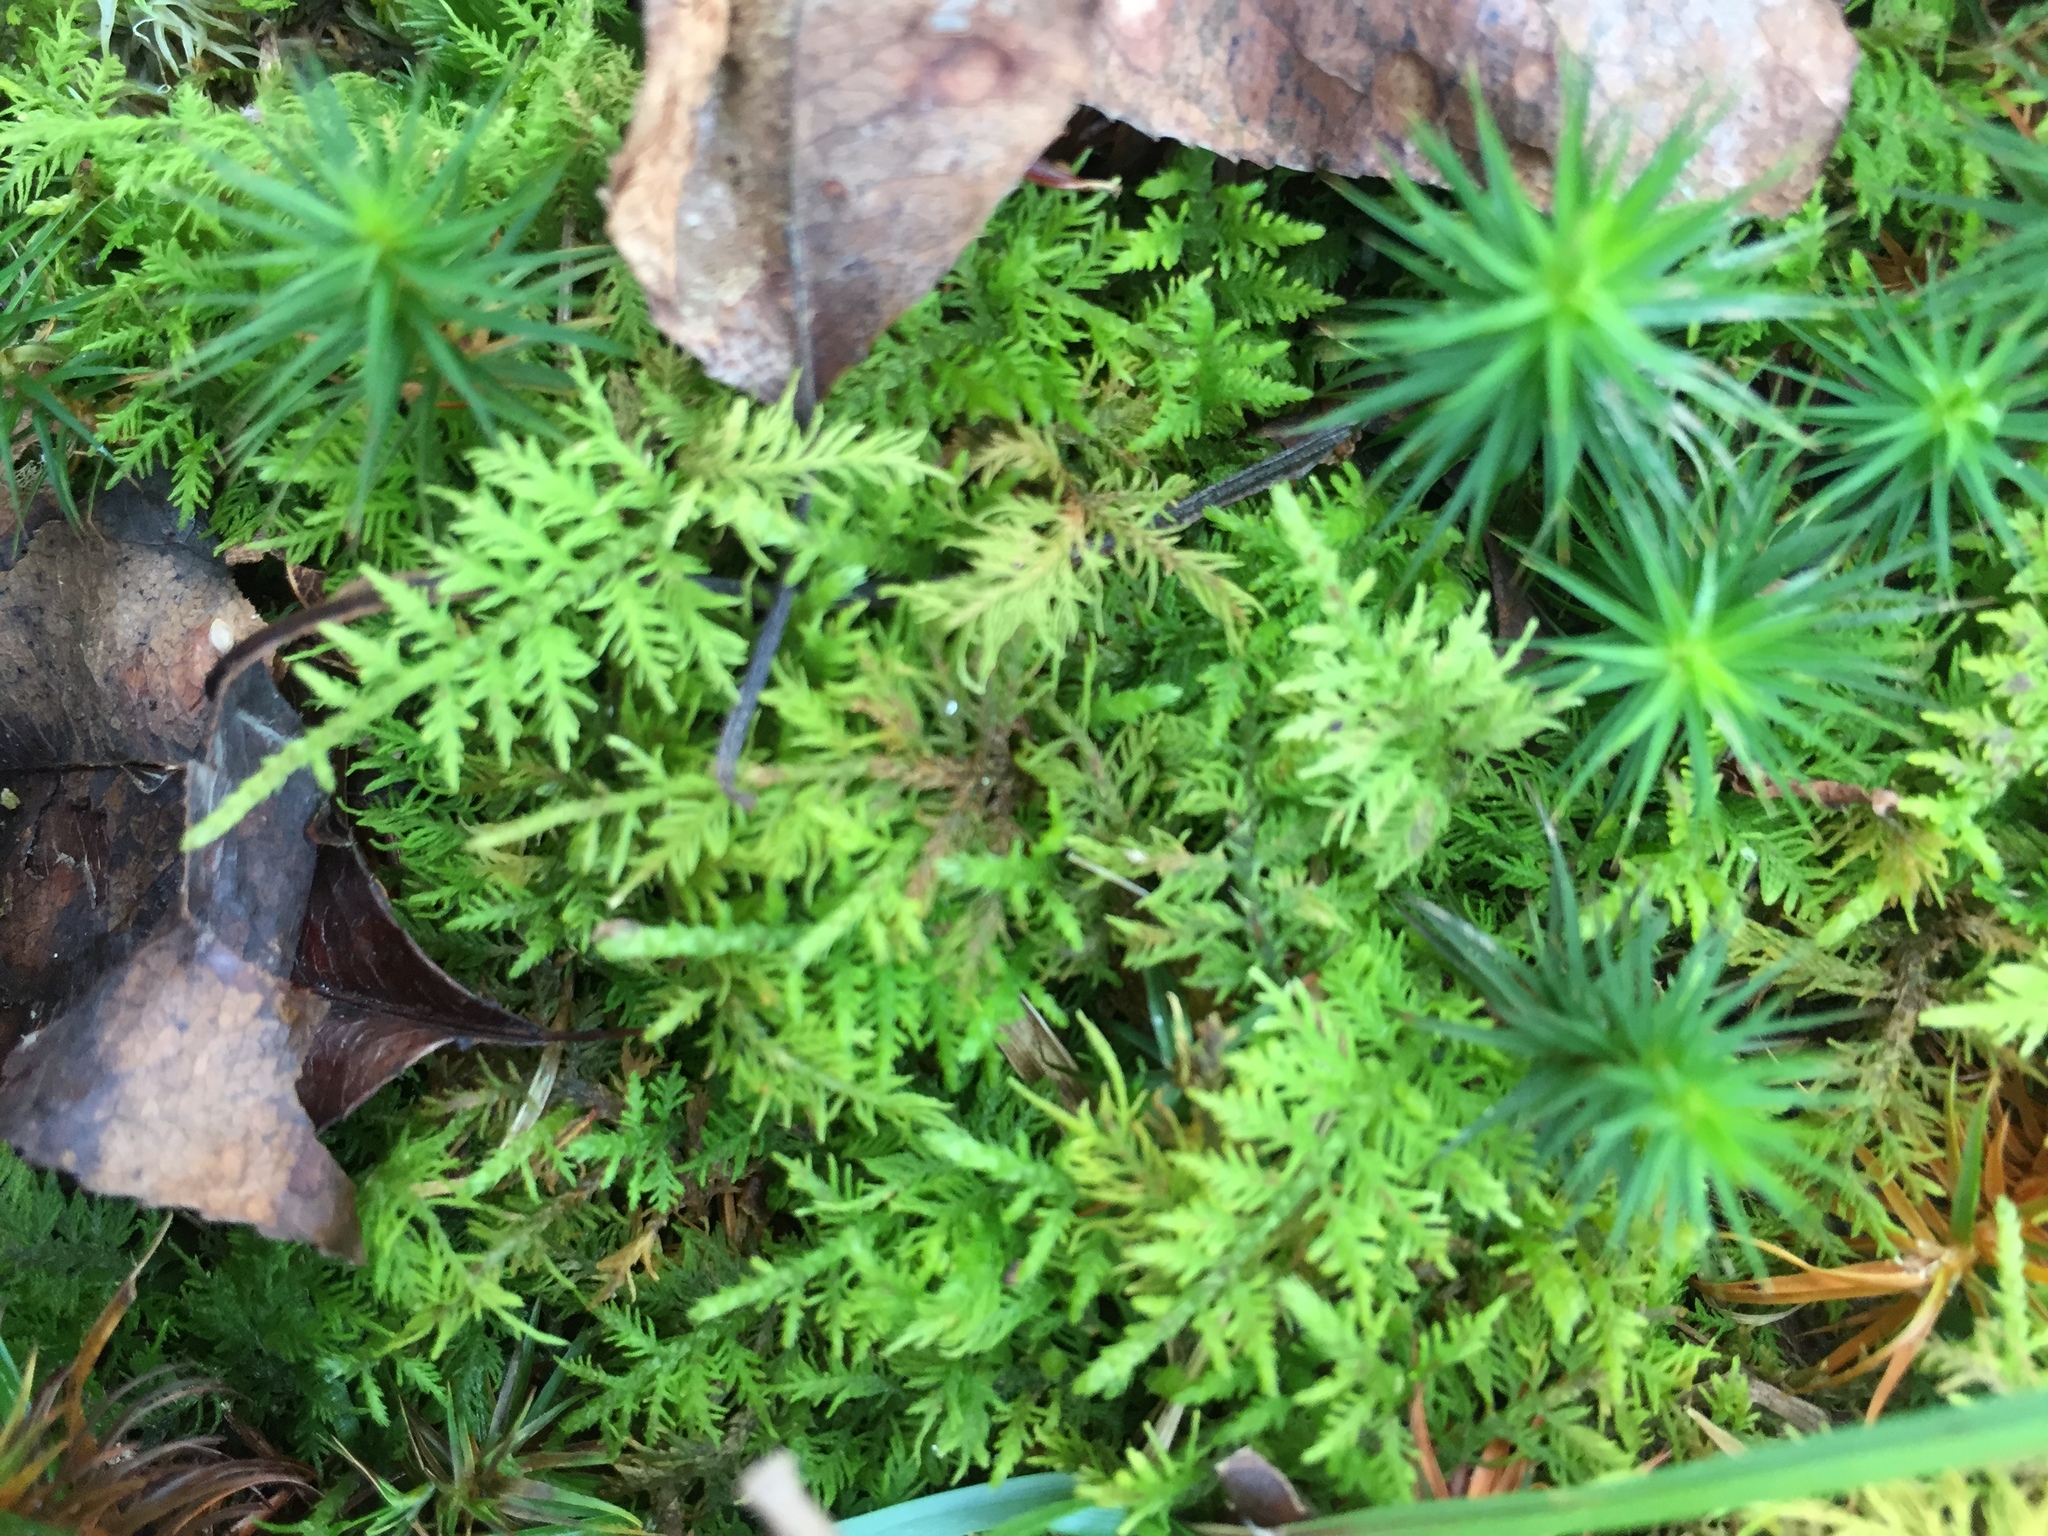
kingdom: Plantae
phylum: Bryophyta
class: Bryopsida
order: Hypnales
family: Thuidiaceae
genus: Thuidium
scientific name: Thuidium delicatulum
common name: Delicate fern moss
